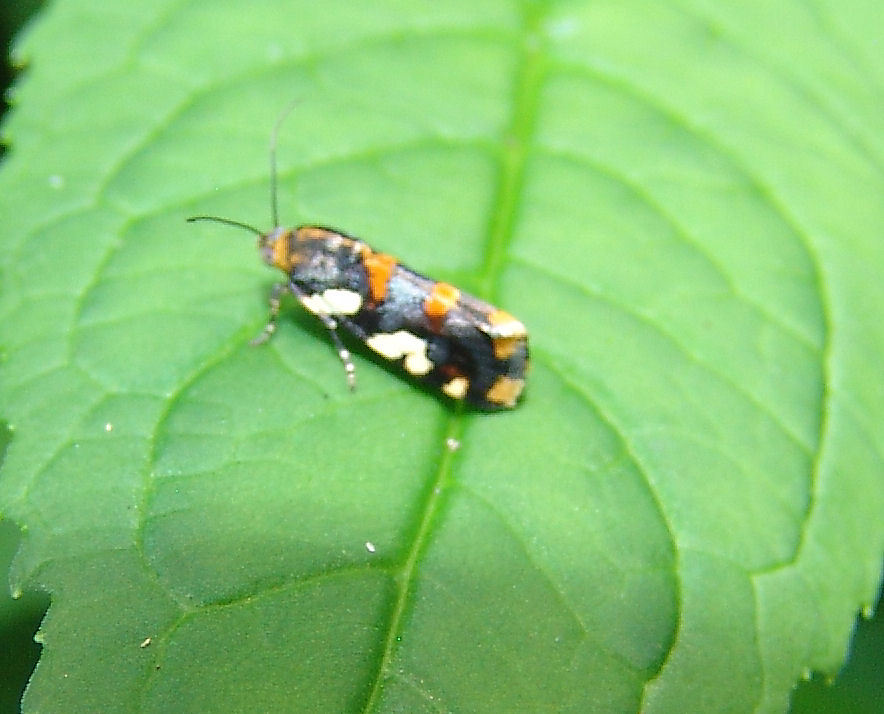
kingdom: Animalia
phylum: Arthropoda
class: Insecta
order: Lepidoptera
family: Noctuidae
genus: Acontia
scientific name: Acontia dama
